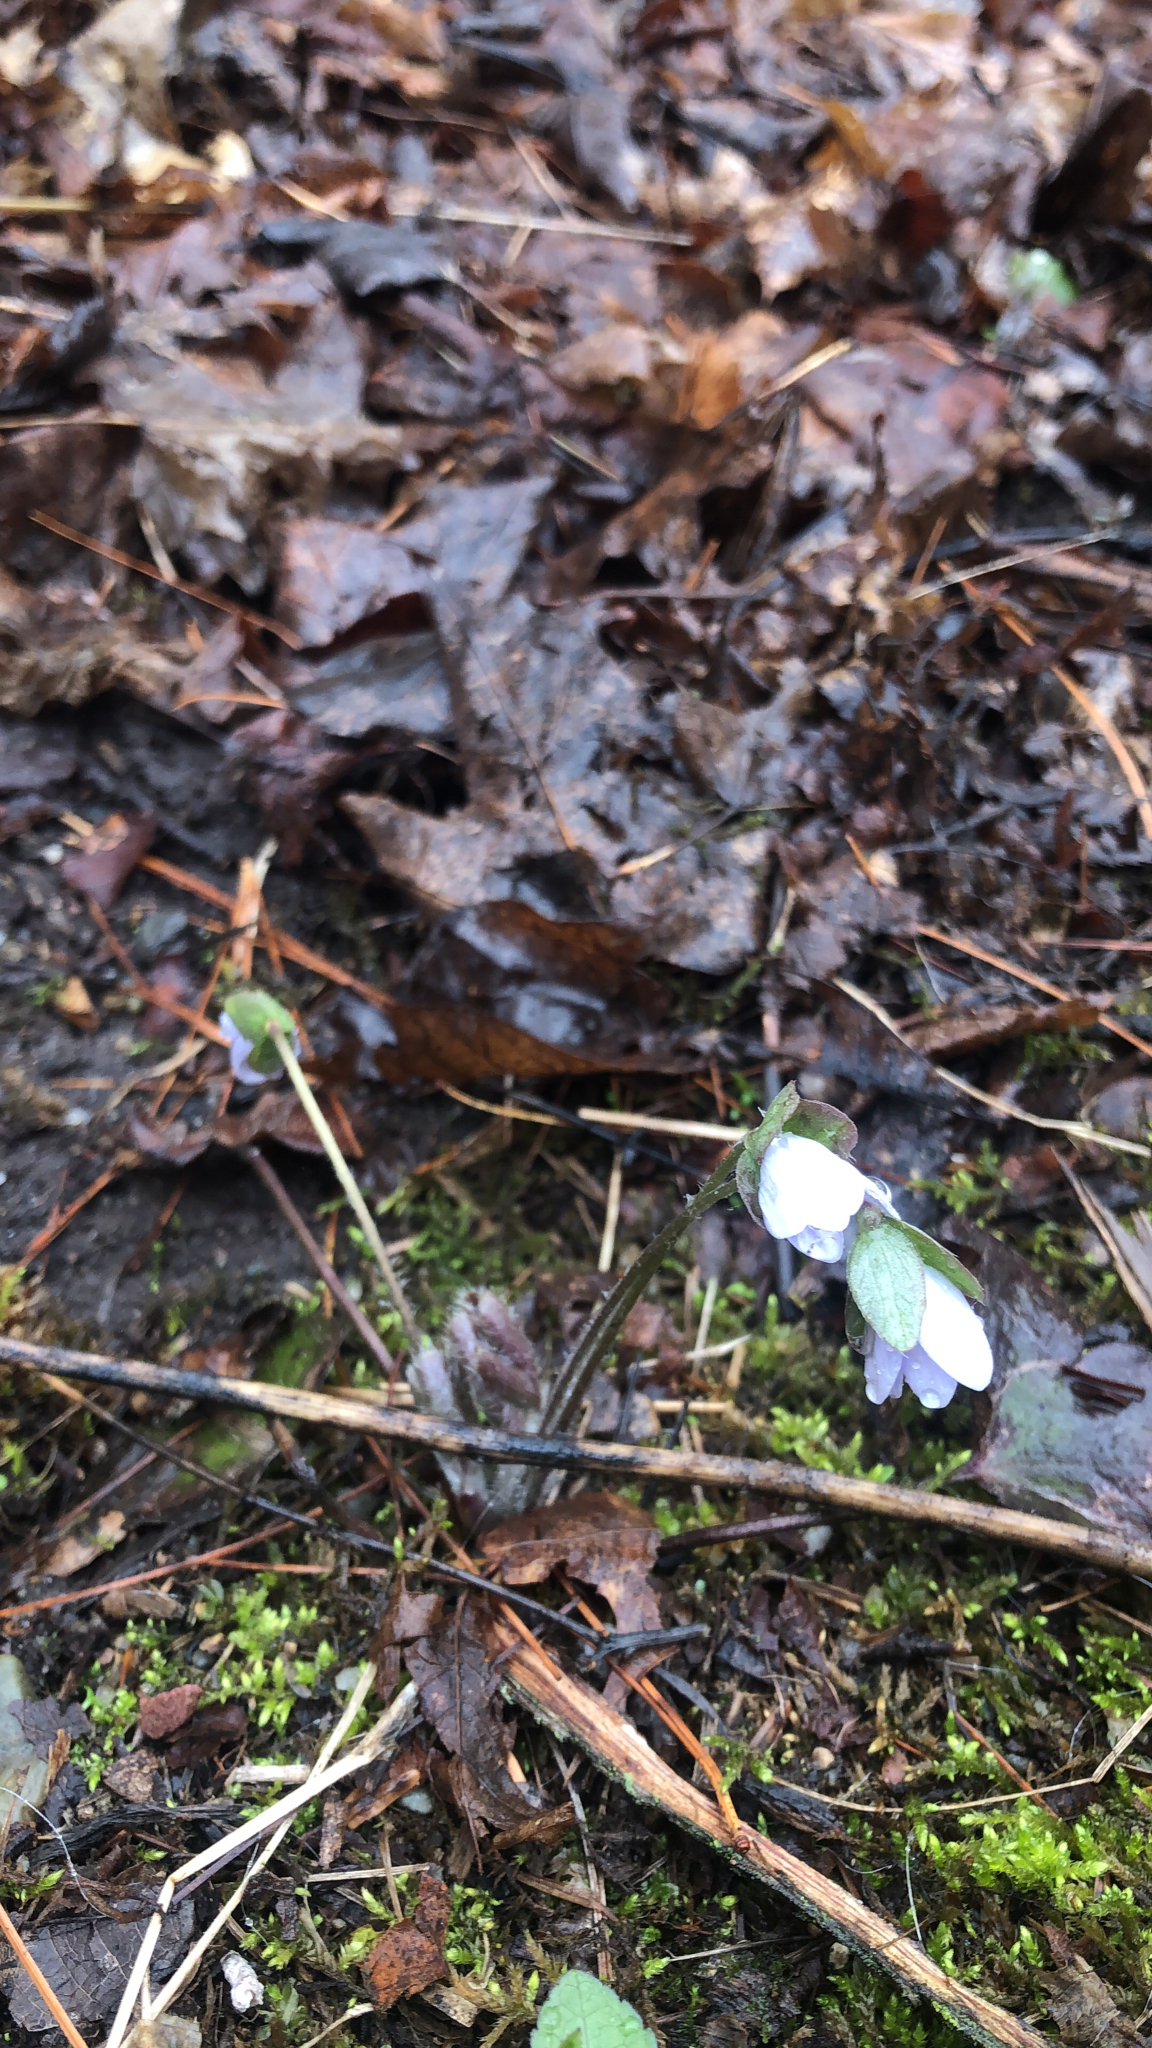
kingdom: Plantae
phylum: Tracheophyta
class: Magnoliopsida
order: Ranunculales
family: Ranunculaceae
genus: Hepatica
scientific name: Hepatica americana
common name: American hepatica
